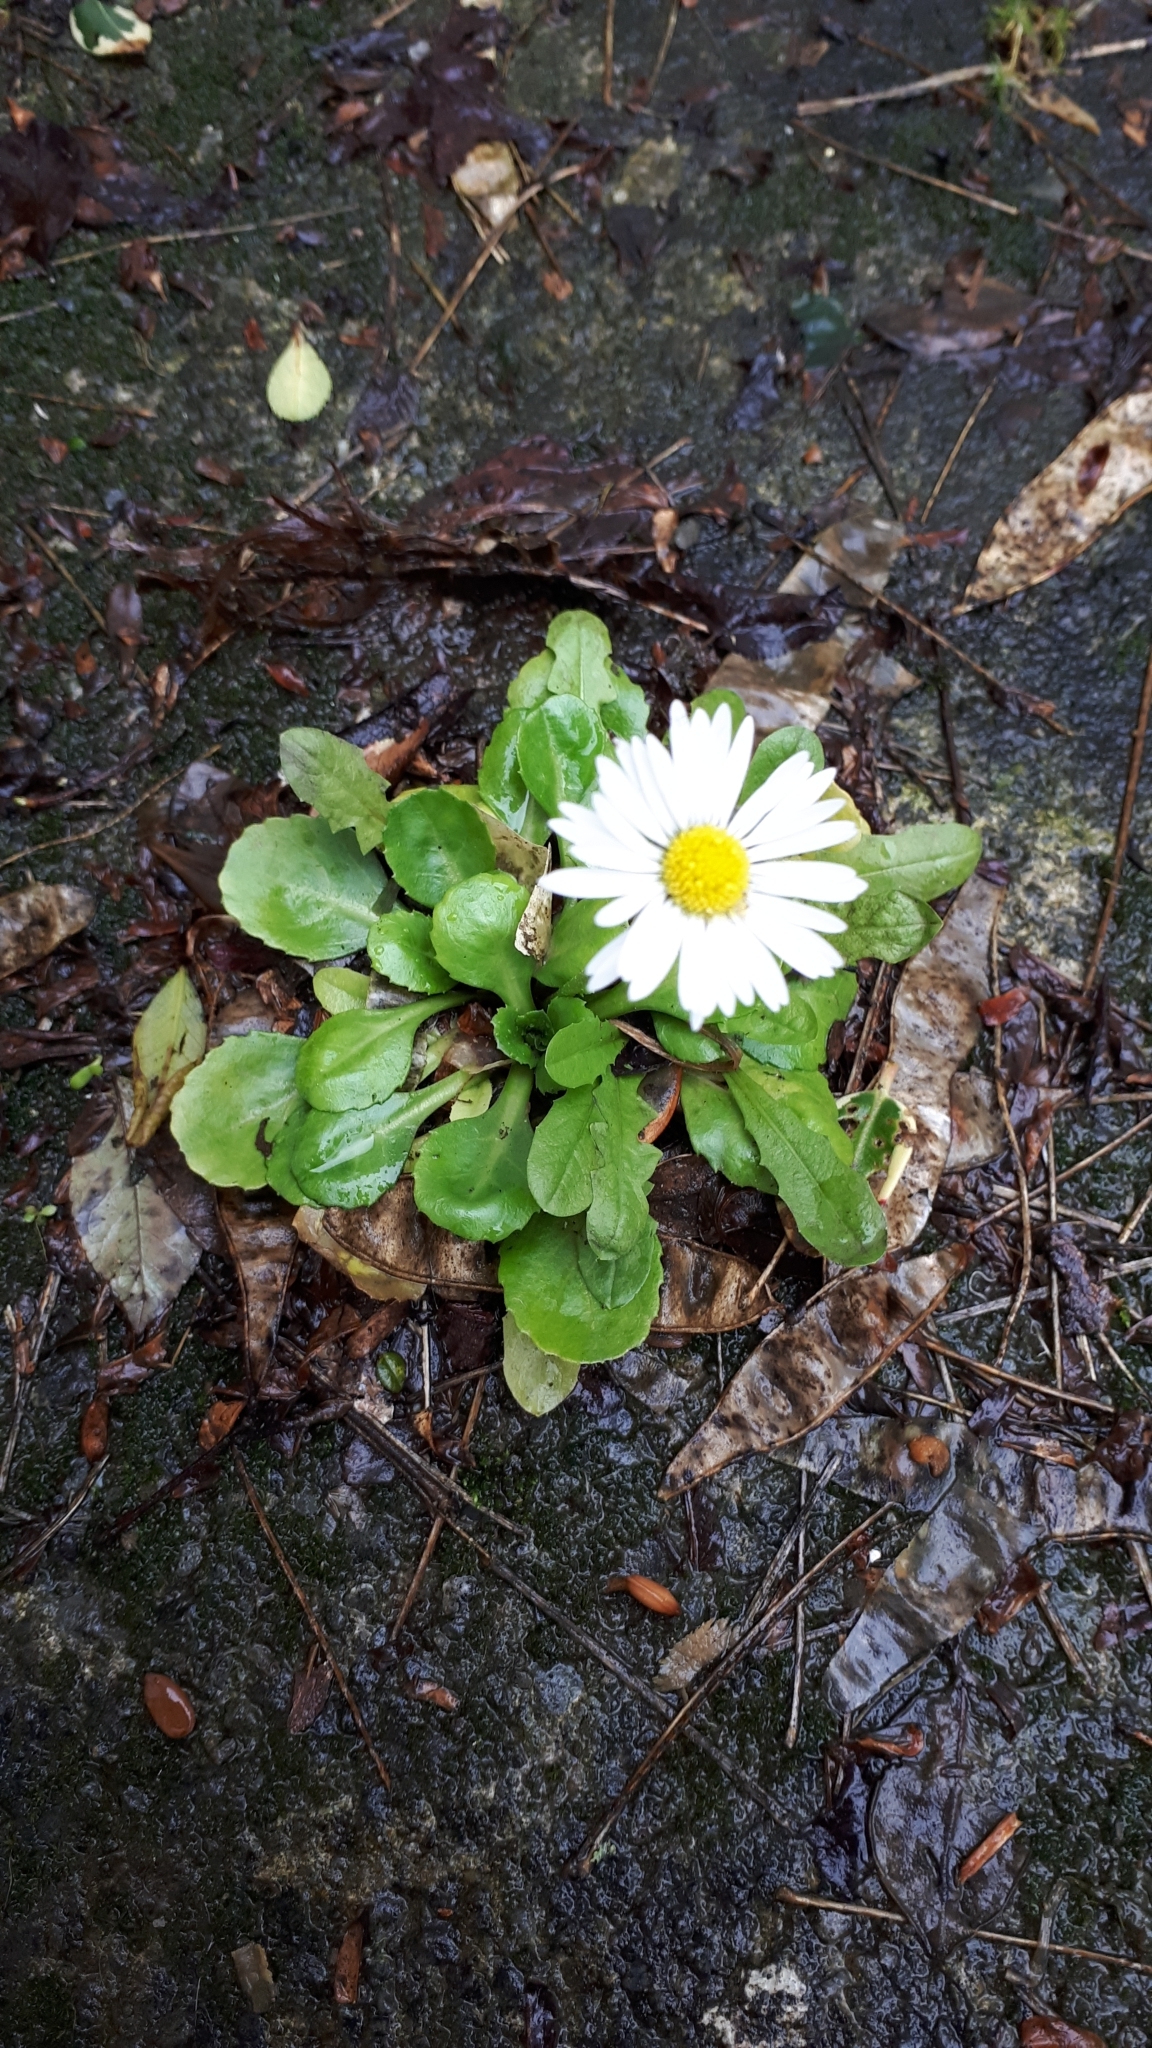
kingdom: Plantae
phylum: Tracheophyta
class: Magnoliopsida
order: Asterales
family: Asteraceae
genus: Bellis
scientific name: Bellis perennis
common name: Lawndaisy
